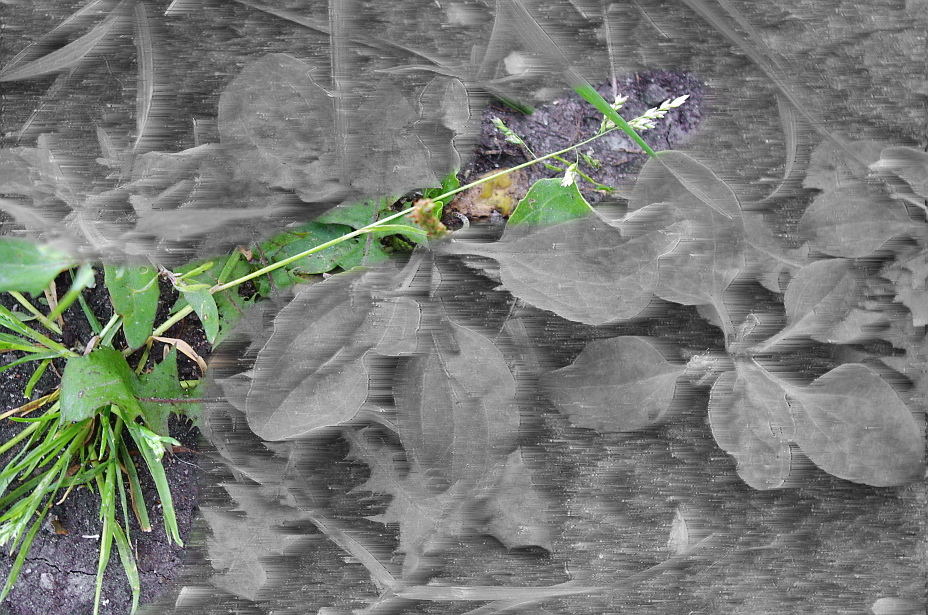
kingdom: Plantae
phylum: Tracheophyta
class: Liliopsida
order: Poales
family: Poaceae
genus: Poa
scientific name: Poa annua
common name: Annual bluegrass
